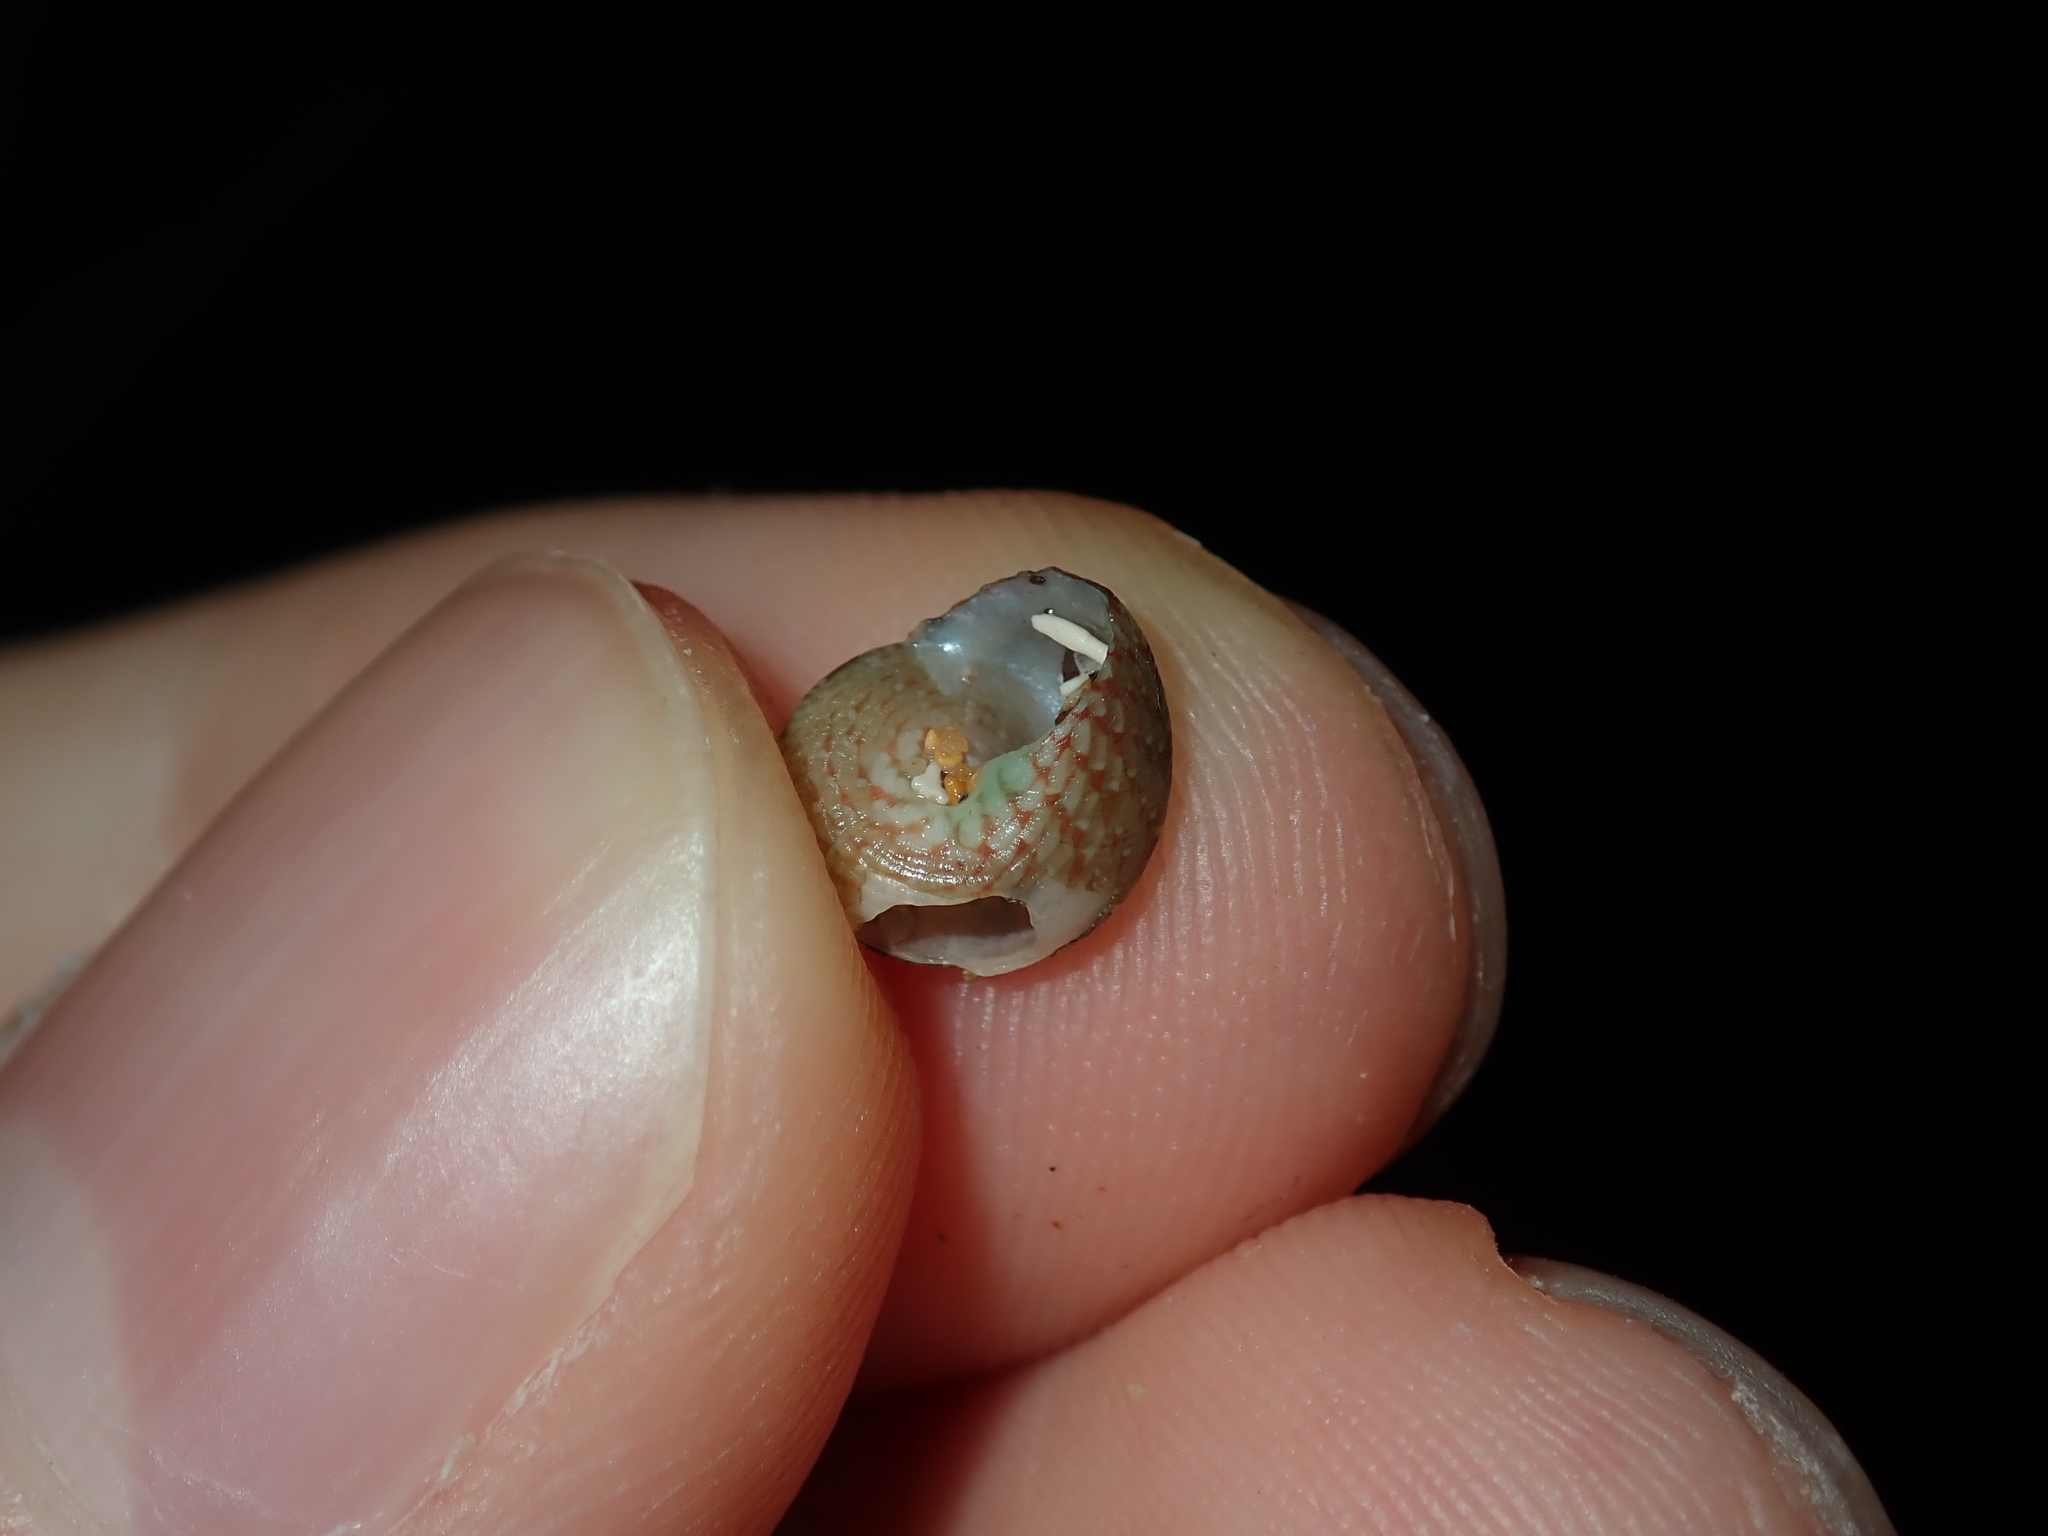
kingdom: Animalia
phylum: Mollusca
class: Gastropoda
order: Trochida
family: Trochidae
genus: Eurytrochus
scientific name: Eurytrochus strangei
